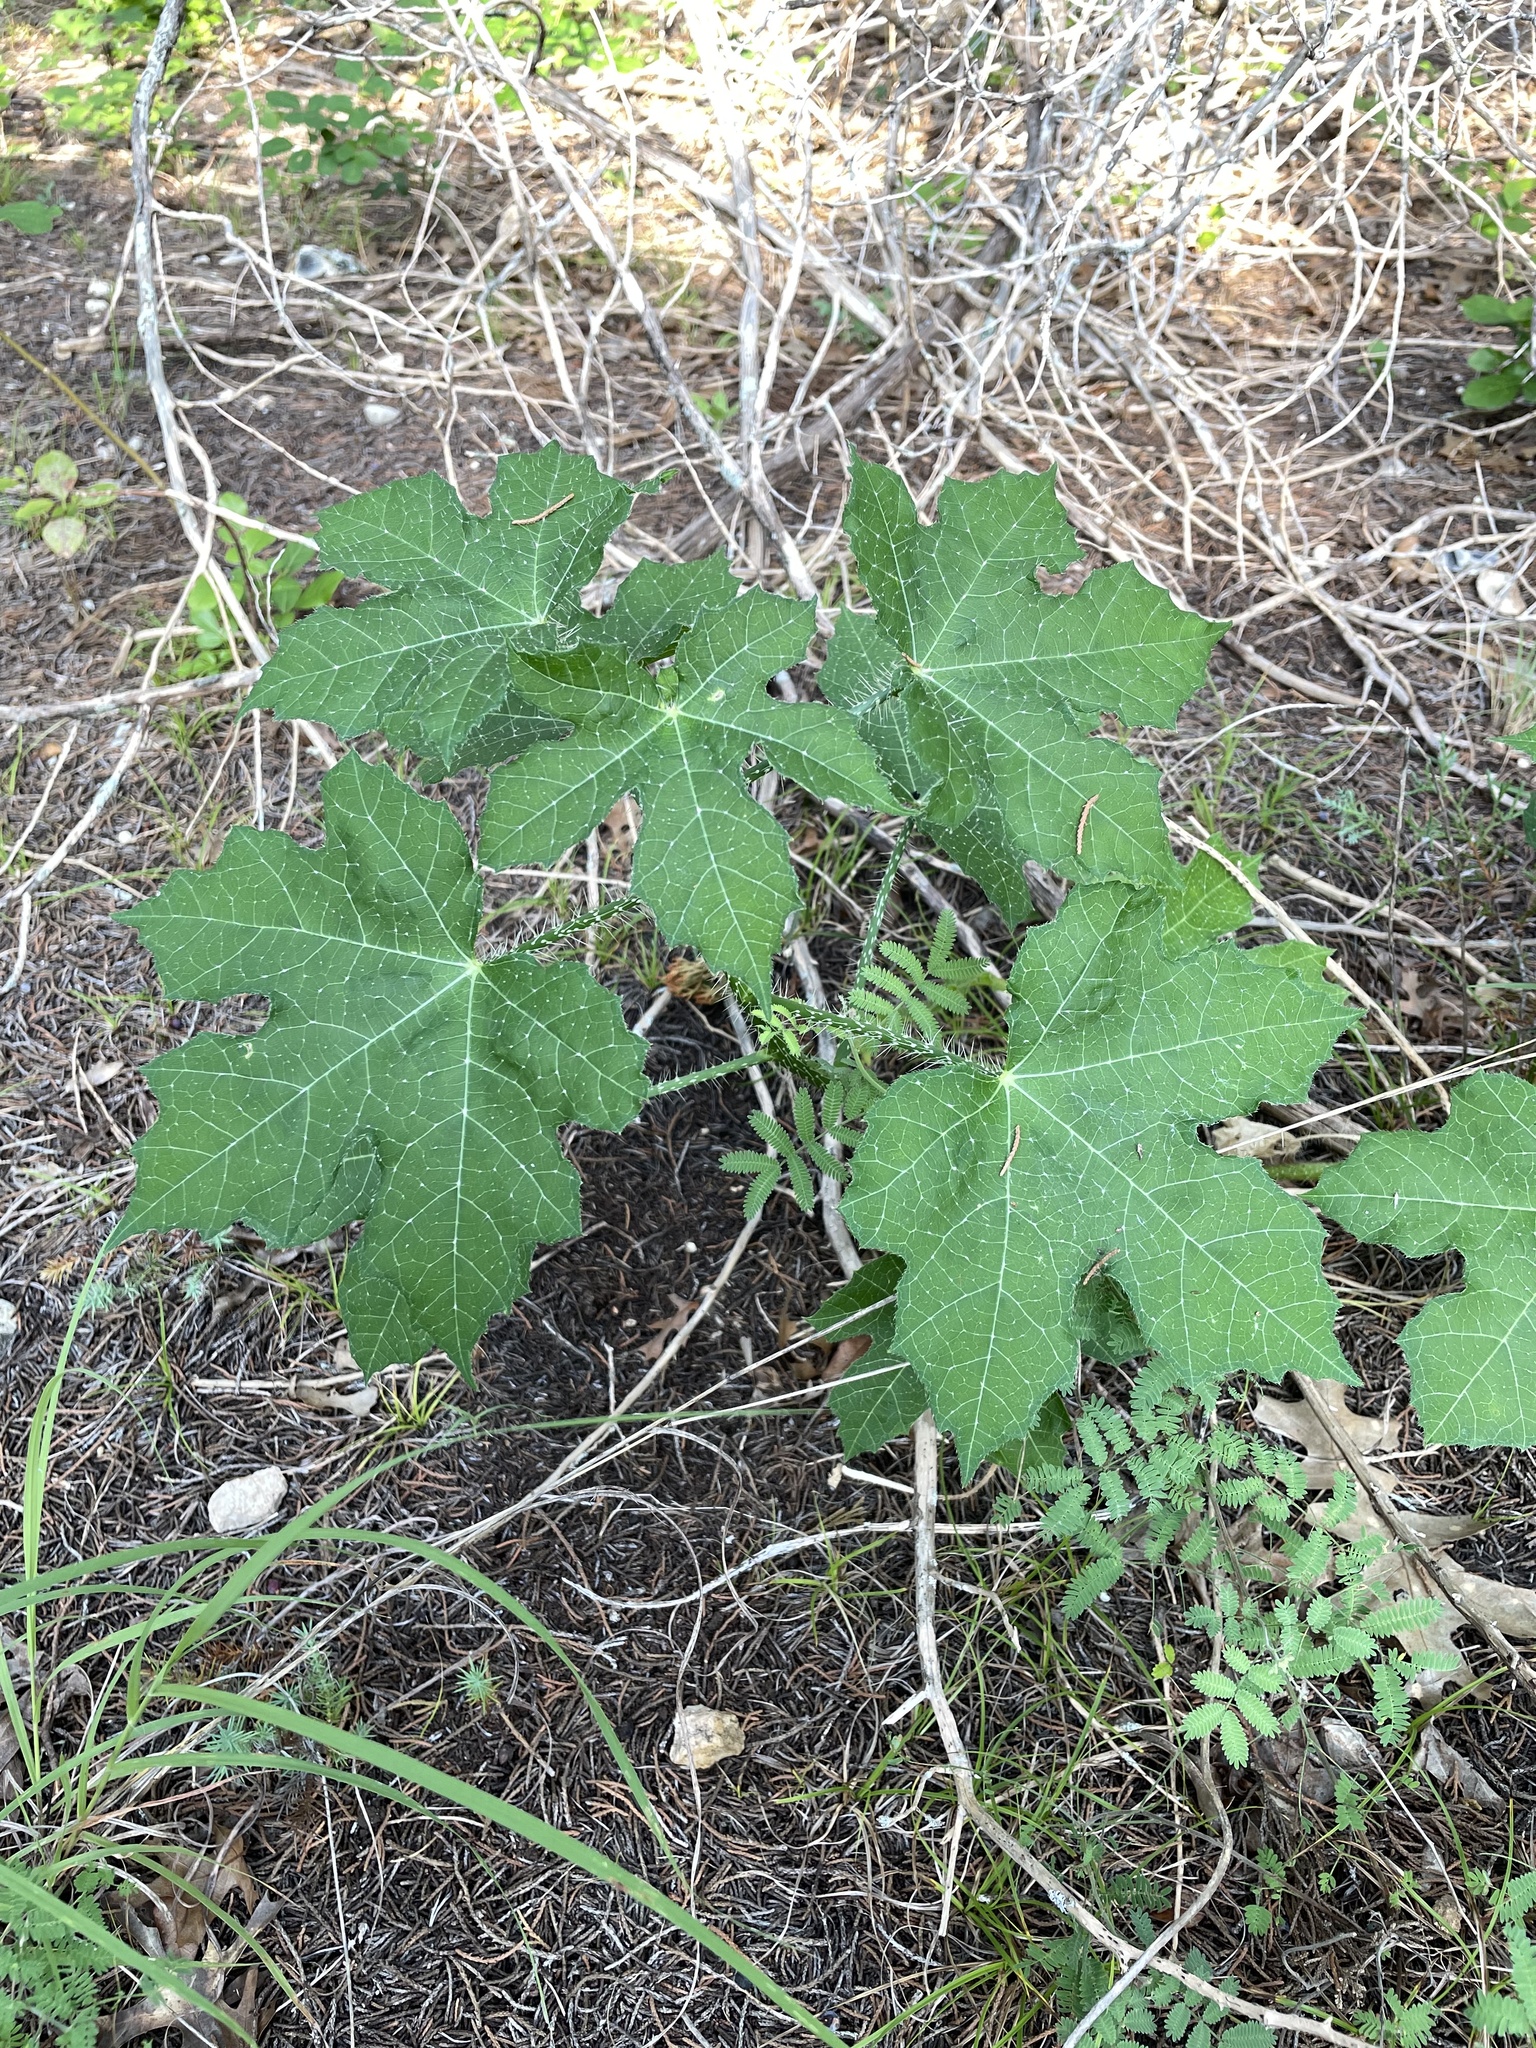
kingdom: Plantae
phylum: Tracheophyta
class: Magnoliopsida
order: Malpighiales
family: Euphorbiaceae
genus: Cnidoscolus
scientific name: Cnidoscolus texanus
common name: Texas bull-nettle
